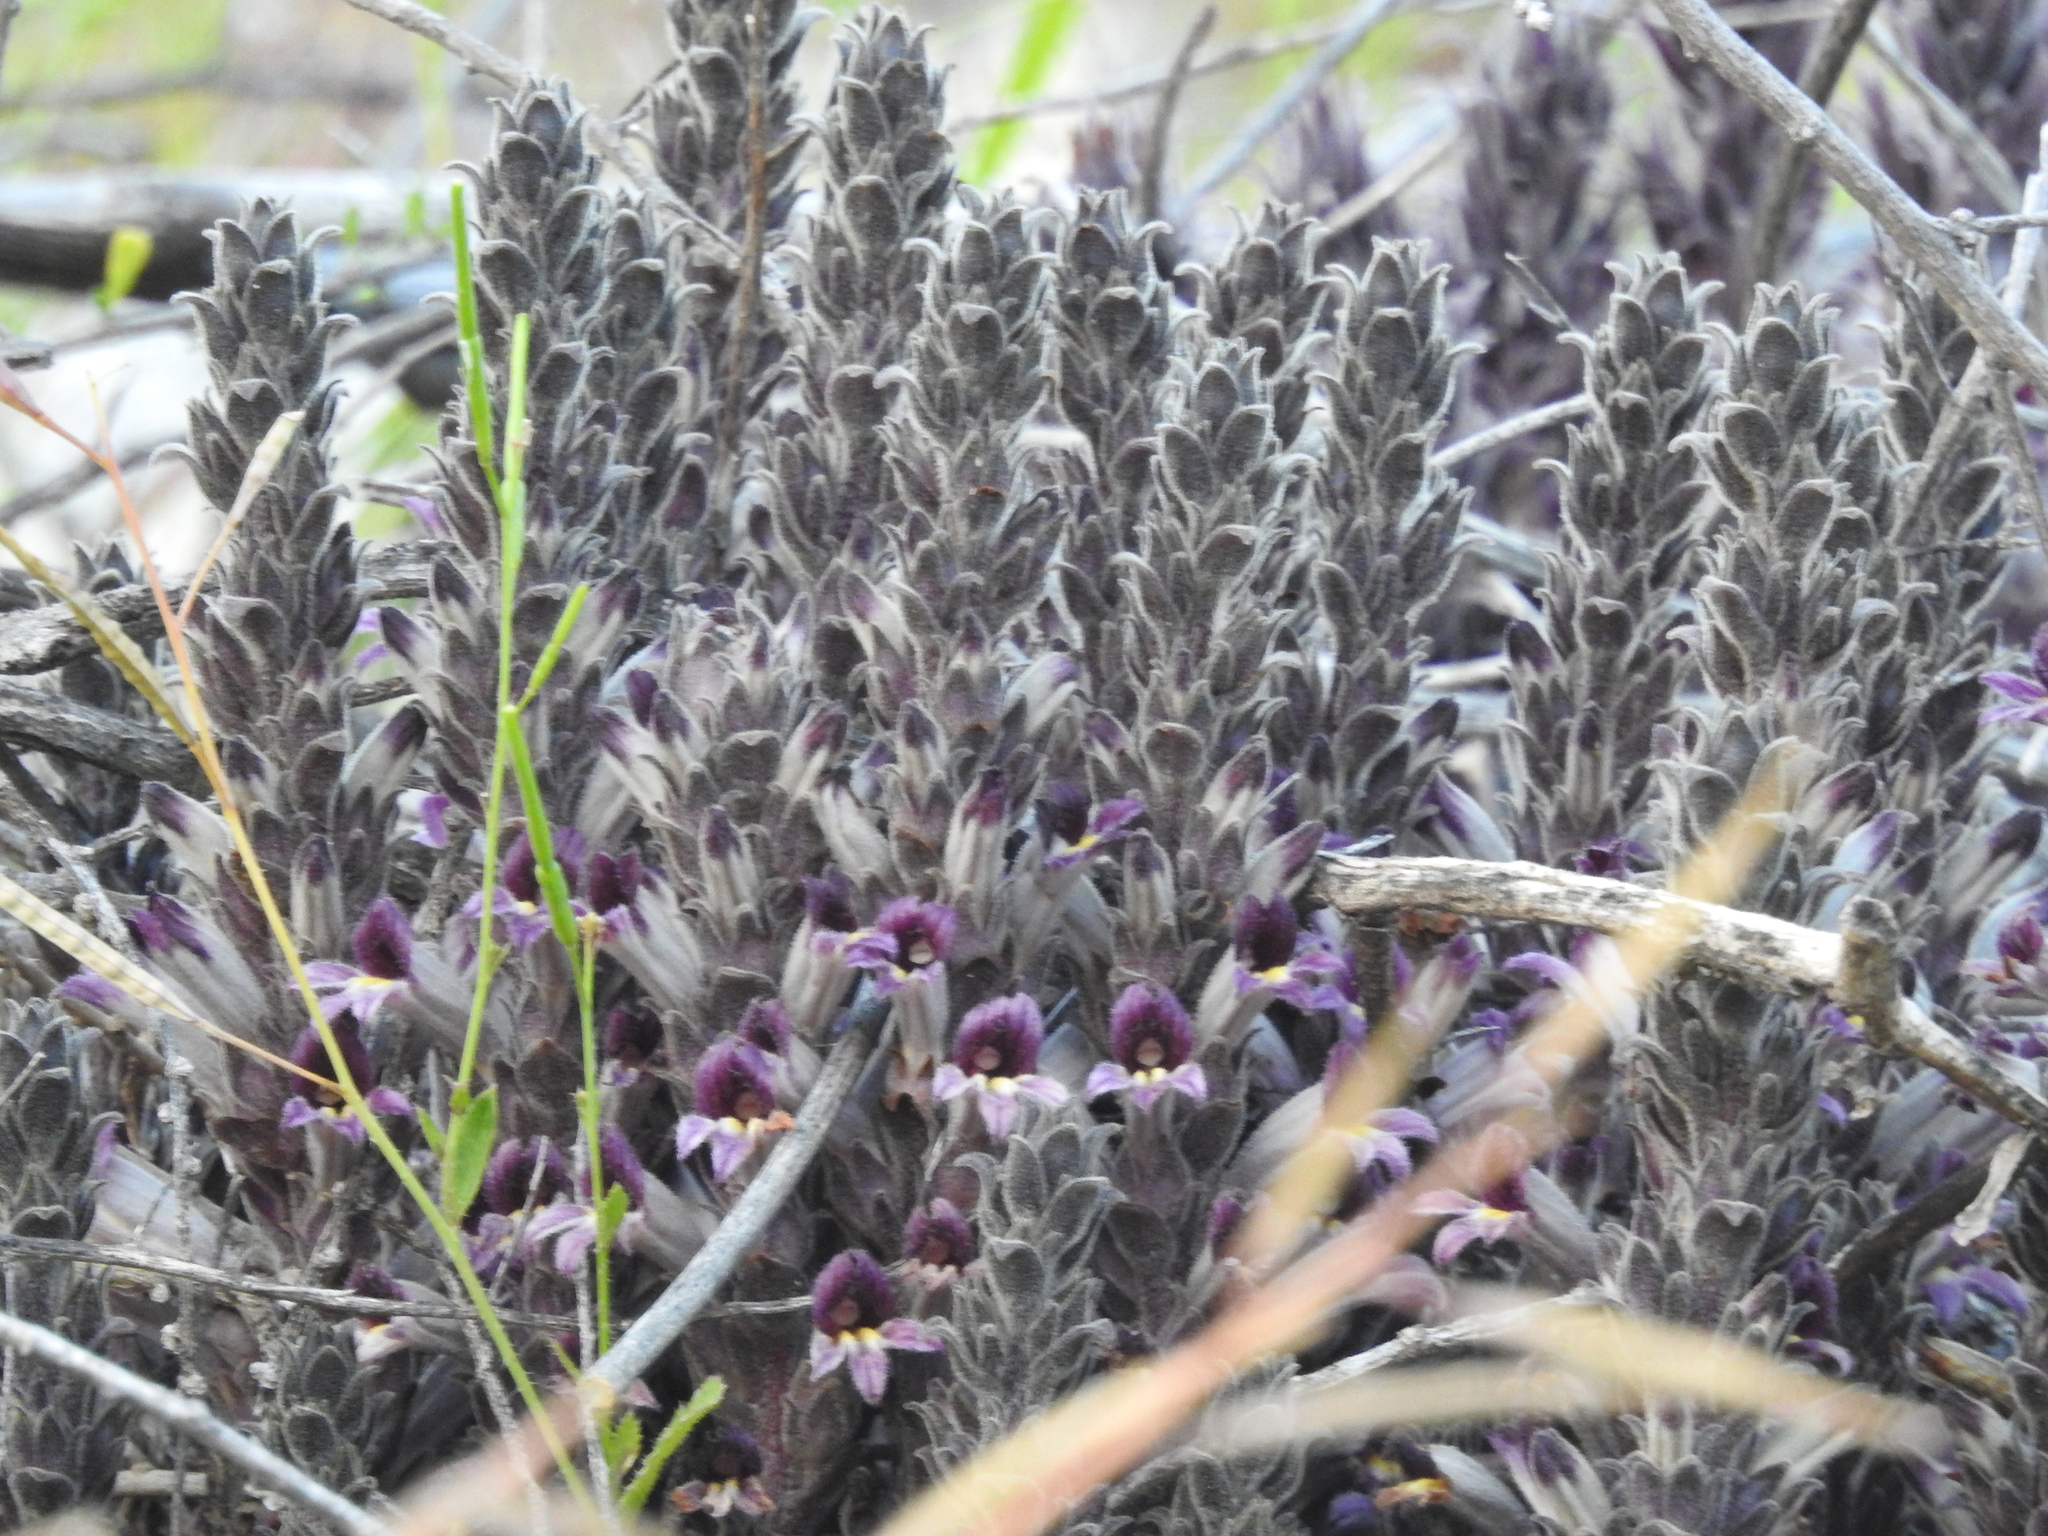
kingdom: Plantae
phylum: Tracheophyta
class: Magnoliopsida
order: Lamiales
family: Orobanchaceae
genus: Aphyllon
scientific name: Aphyllon cooperi
